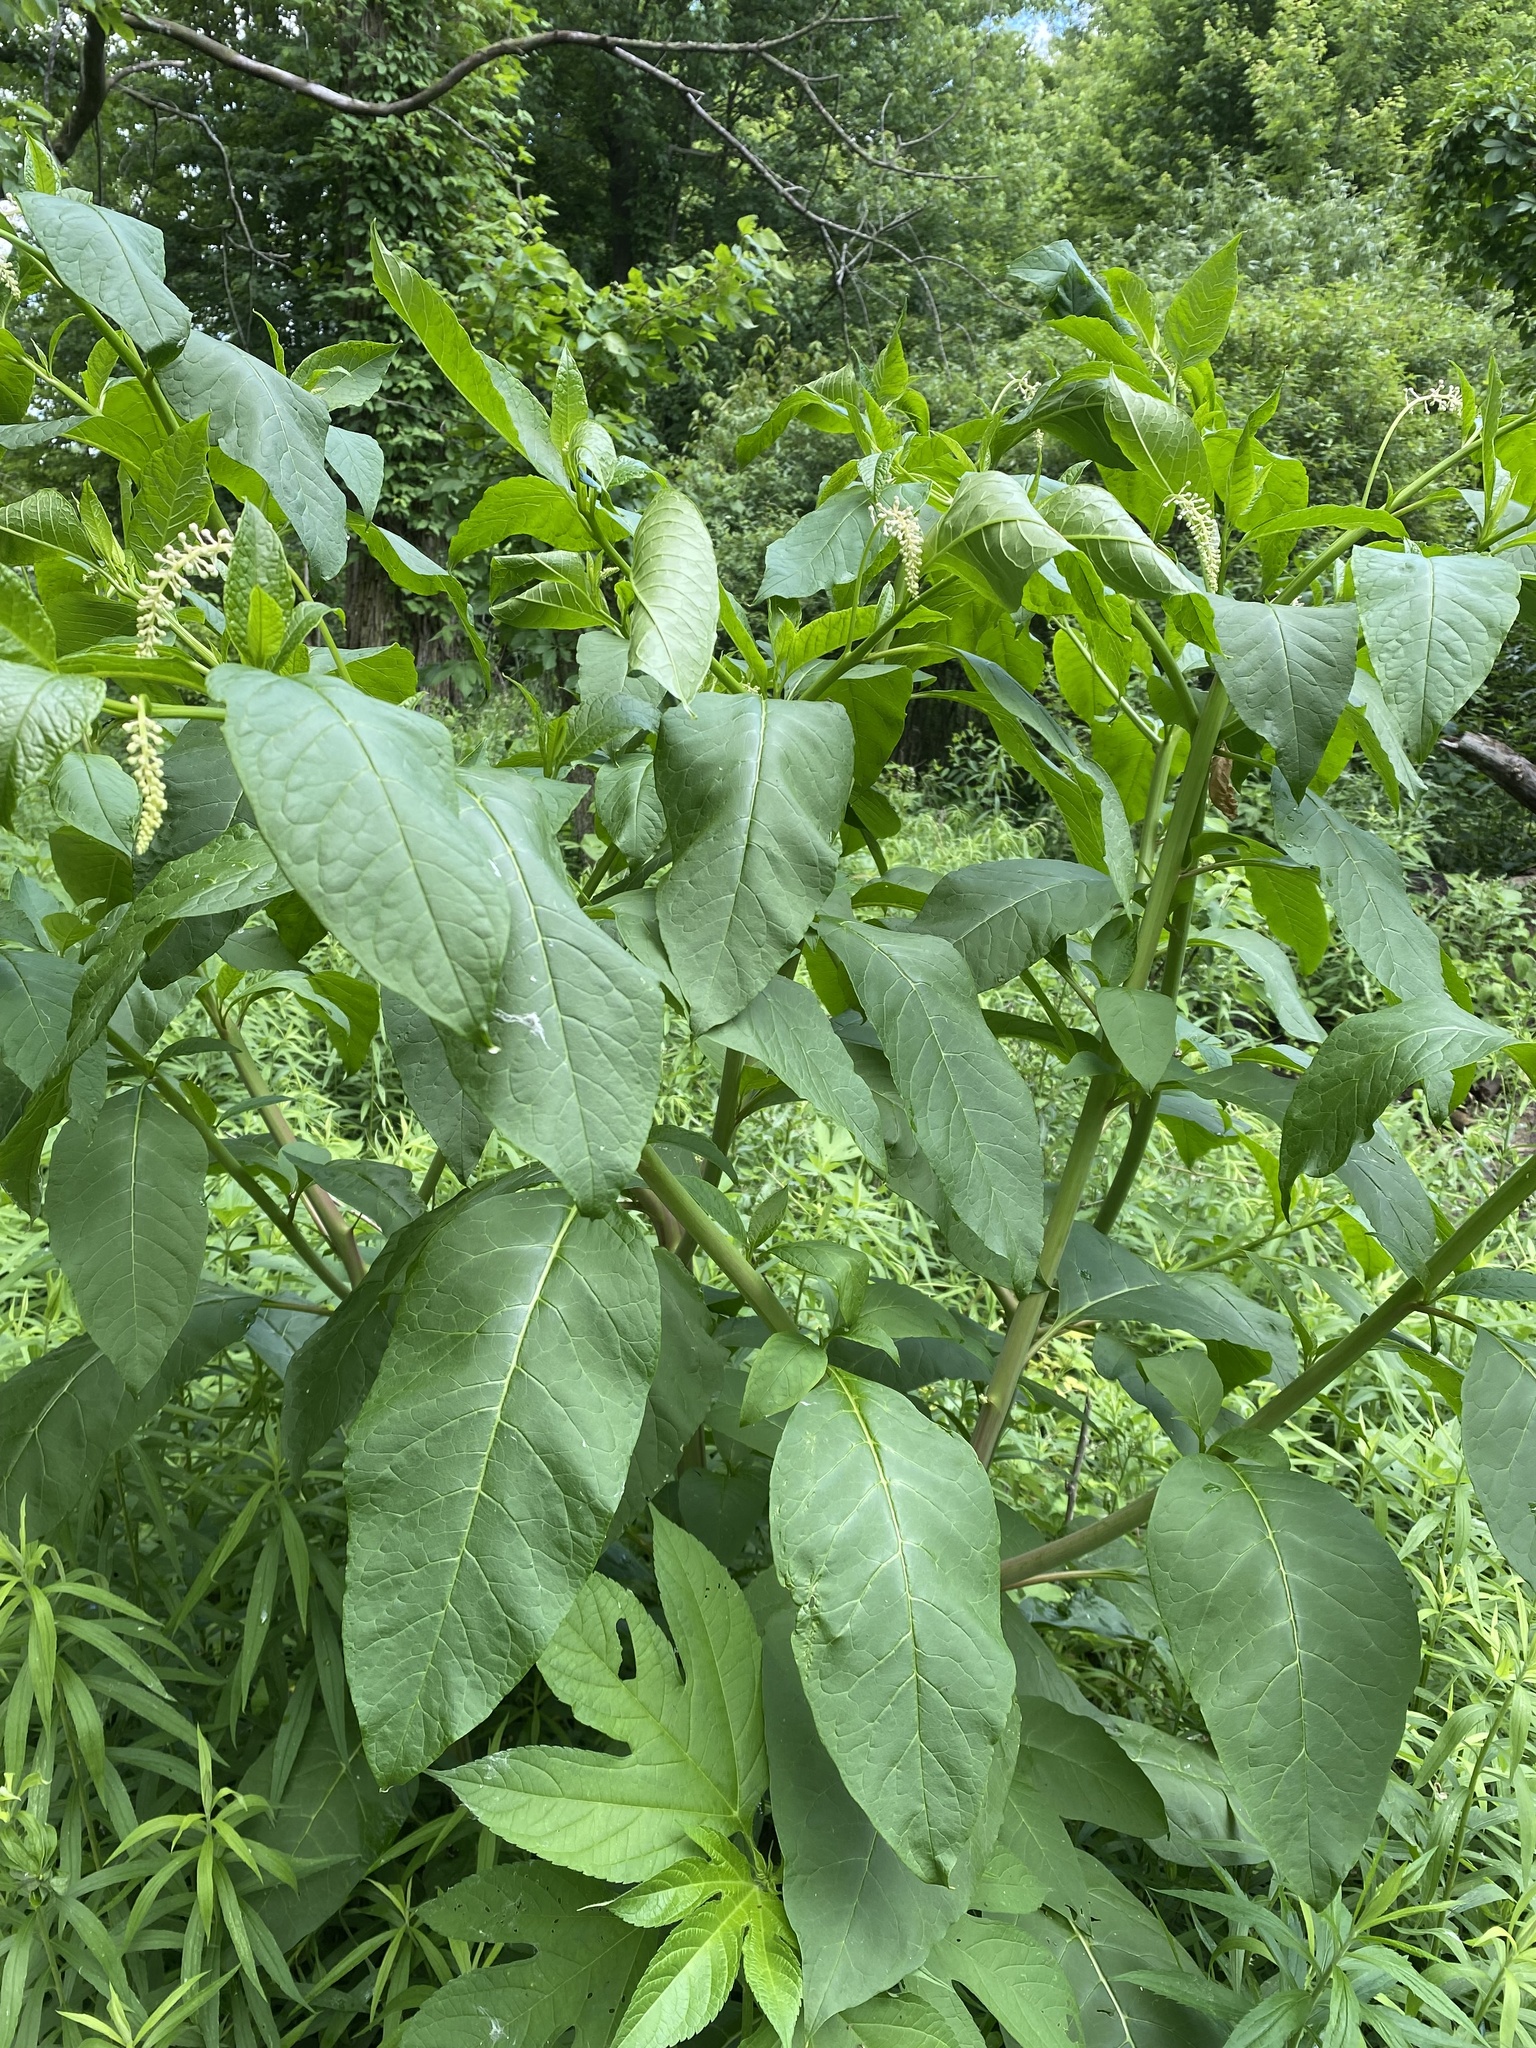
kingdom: Plantae
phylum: Tracheophyta
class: Magnoliopsida
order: Caryophyllales
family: Phytolaccaceae
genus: Phytolacca
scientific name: Phytolacca americana
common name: American pokeweed
